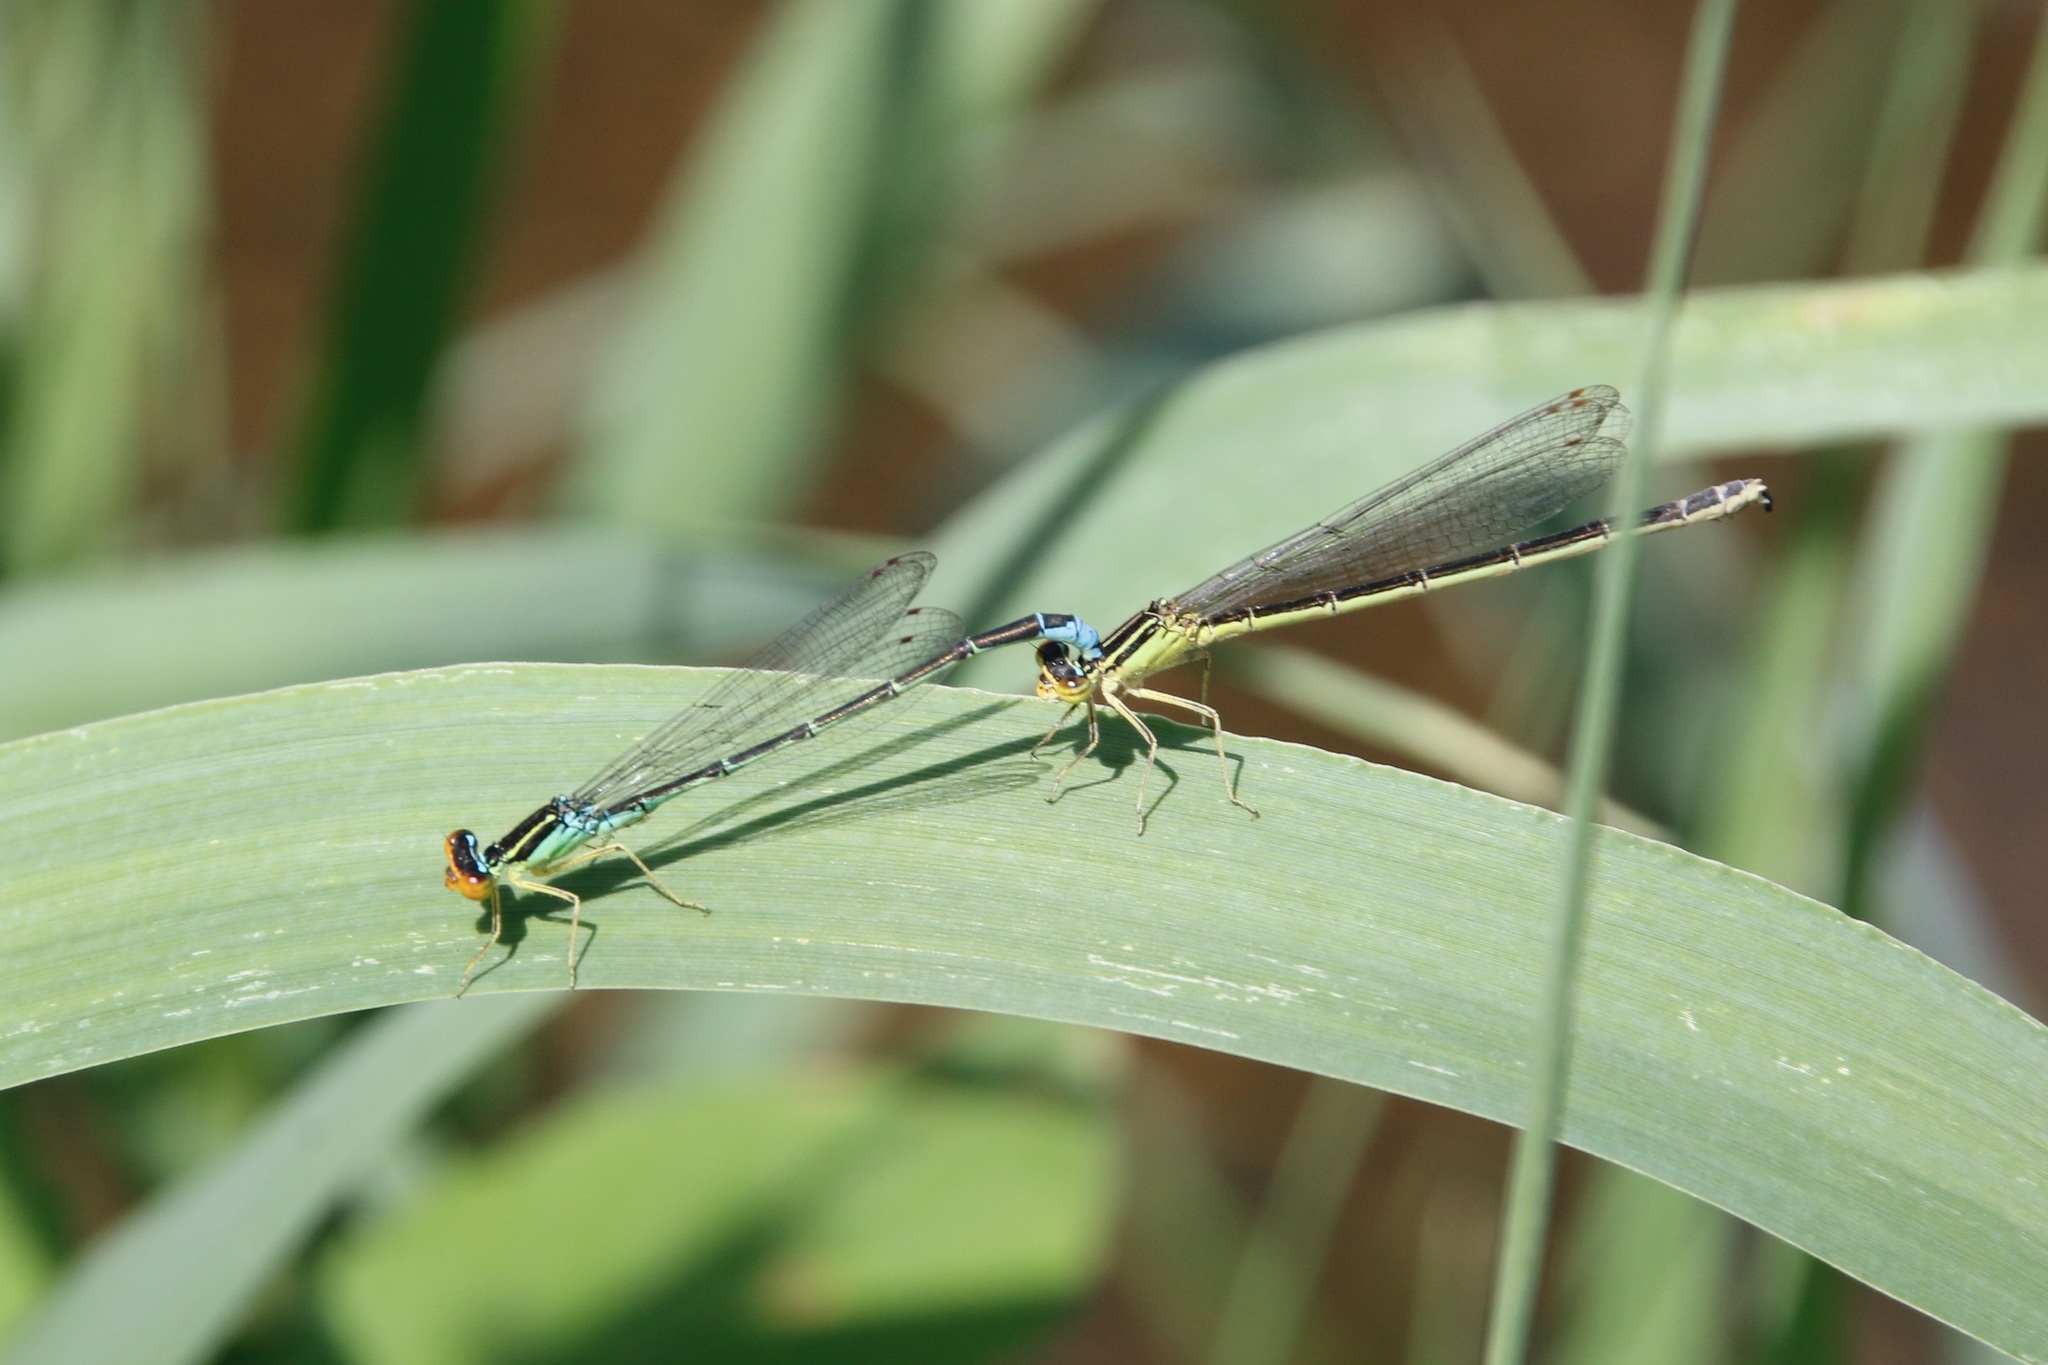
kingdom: Animalia
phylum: Arthropoda
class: Insecta
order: Odonata
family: Coenagrionidae
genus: Enallagma
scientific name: Enallagma antennatum
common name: Rainbow bluet
